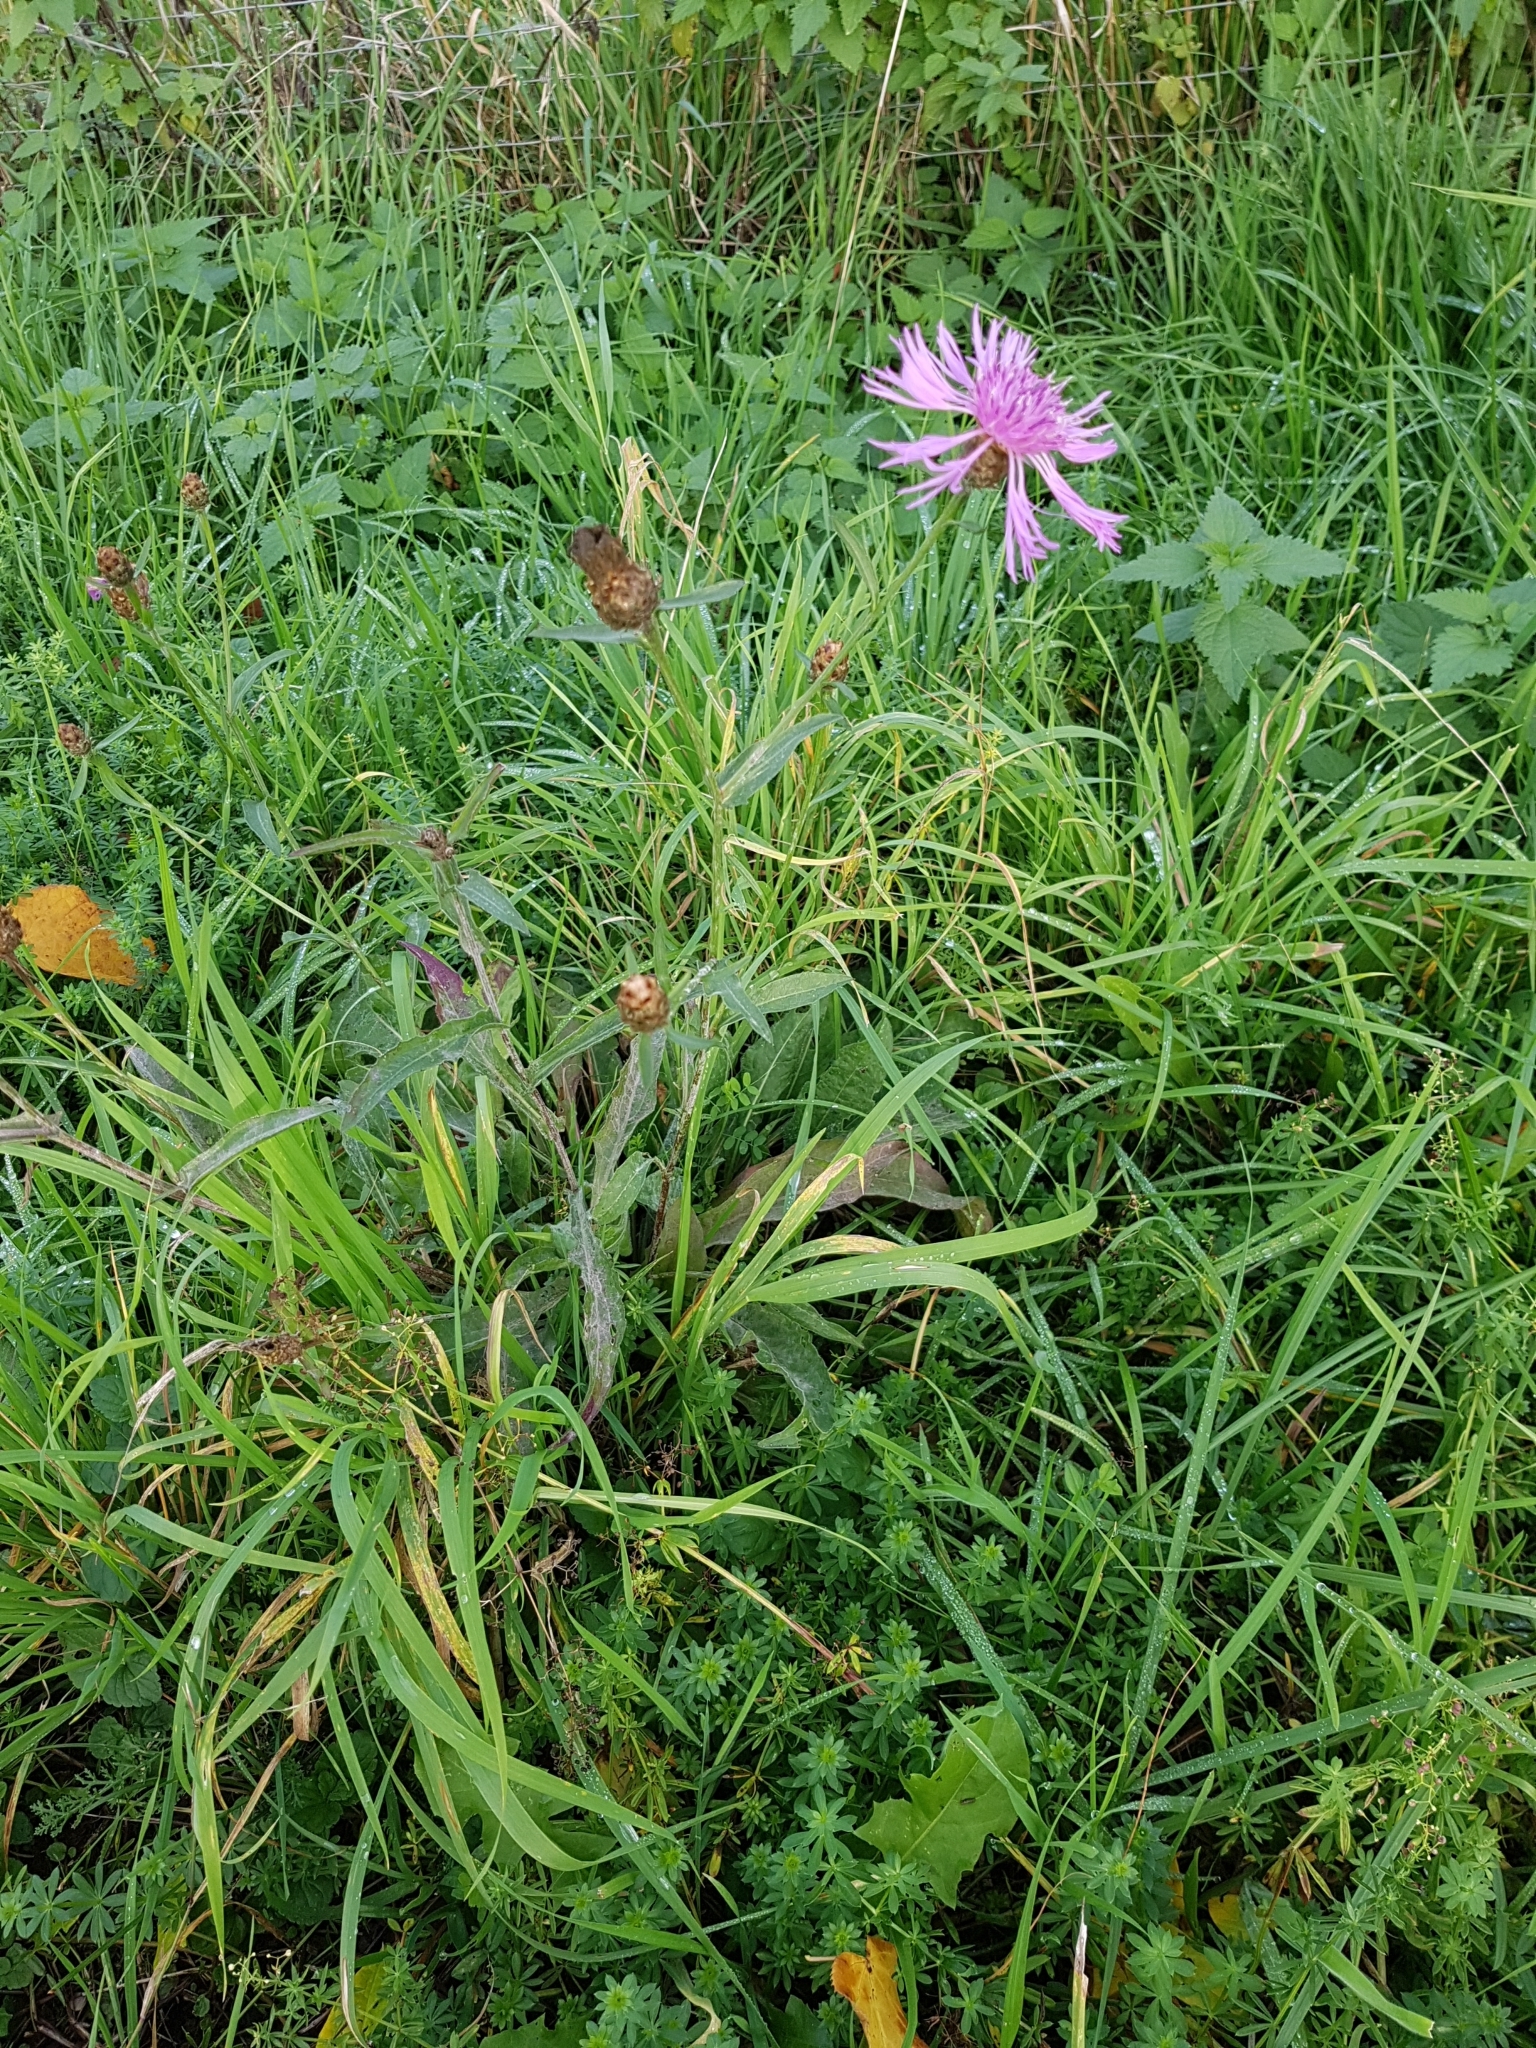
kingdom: Plantae
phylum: Tracheophyta
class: Magnoliopsida
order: Asterales
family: Asteraceae
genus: Centaurea
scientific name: Centaurea jacea
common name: Brown knapweed
